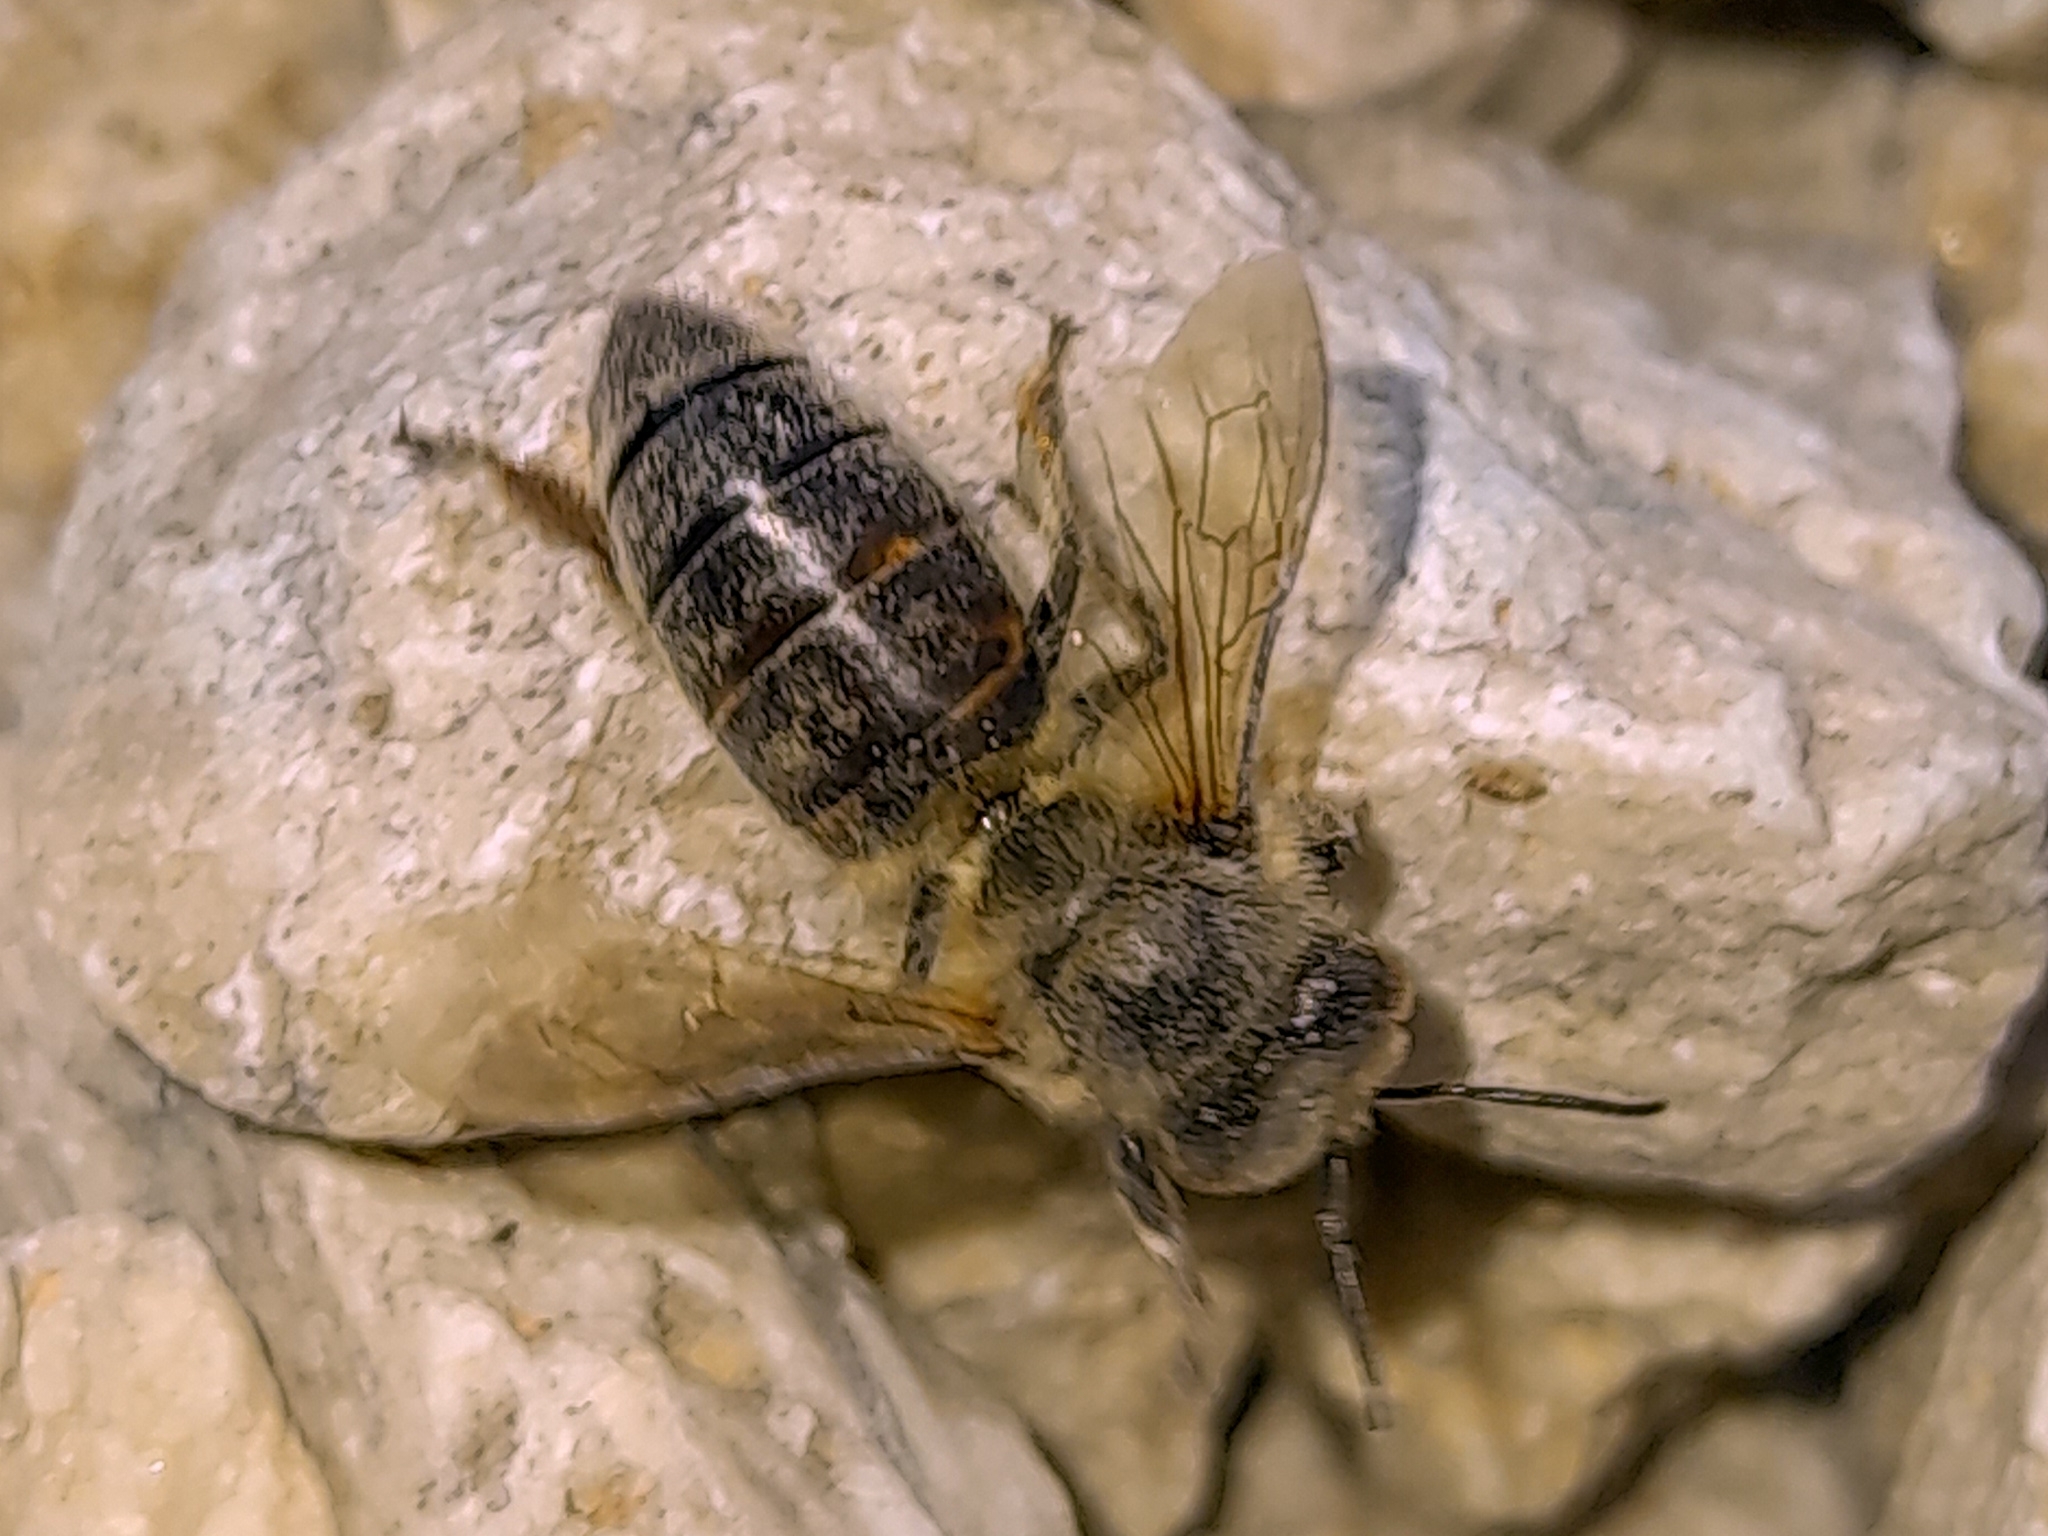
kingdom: Animalia
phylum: Arthropoda
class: Insecta
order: Hymenoptera
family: Apidae
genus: Apis
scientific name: Apis mellifera
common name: Honey bee
